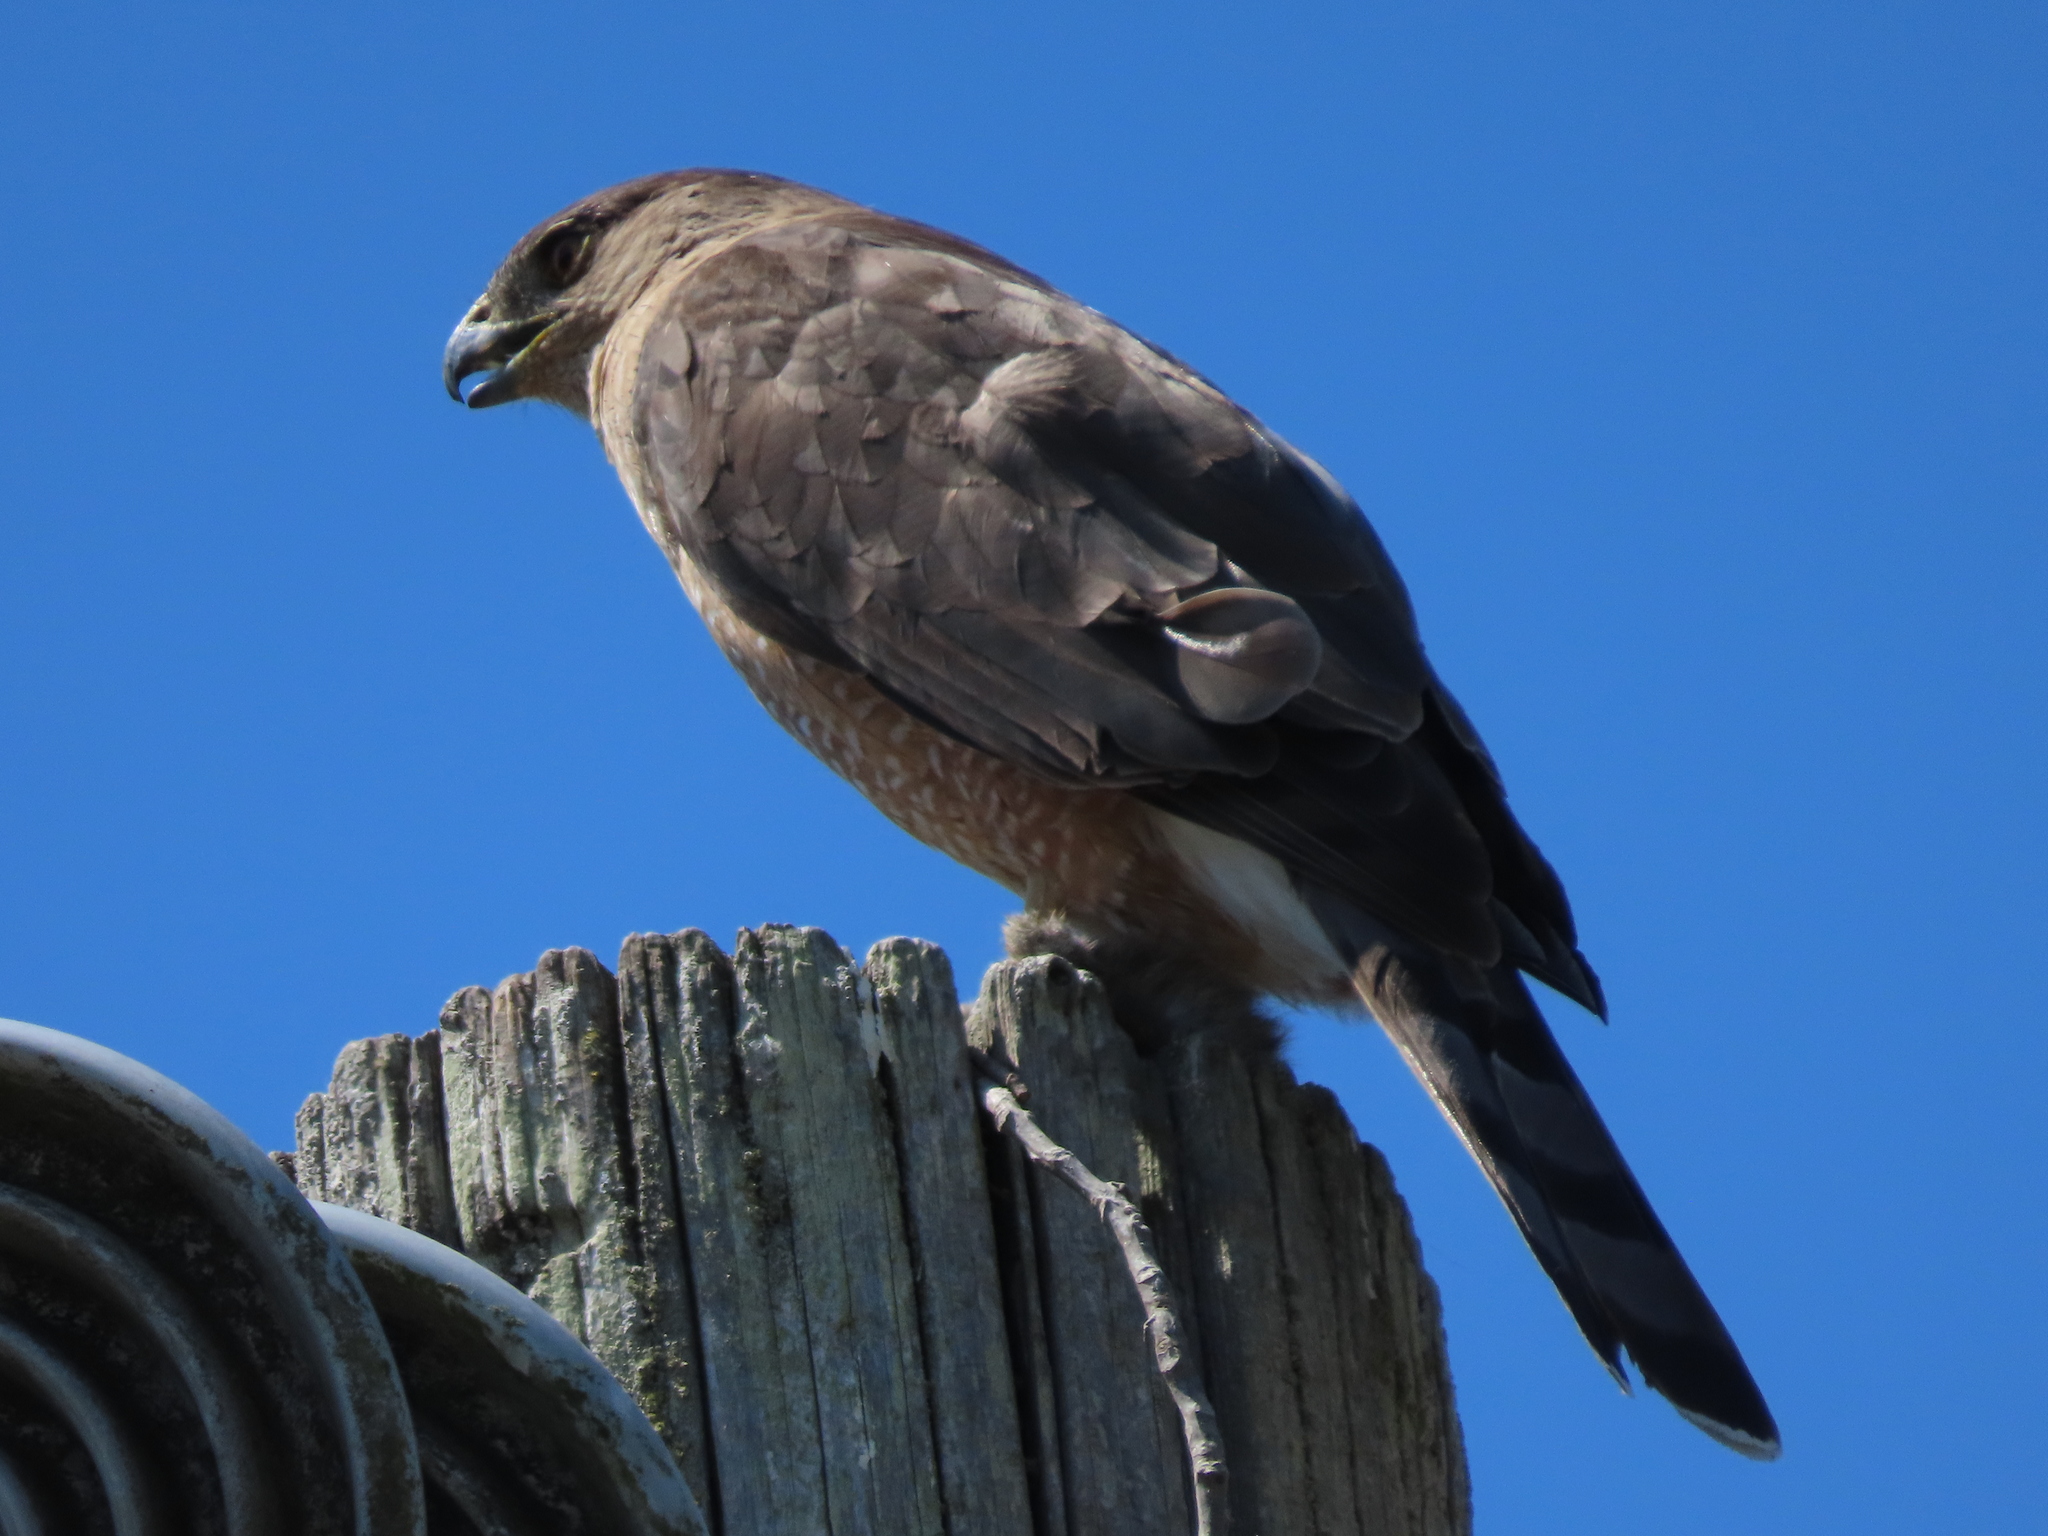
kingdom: Animalia
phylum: Chordata
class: Aves
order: Accipitriformes
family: Accipitridae
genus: Accipiter
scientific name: Accipiter cooperii
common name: Cooper's hawk
